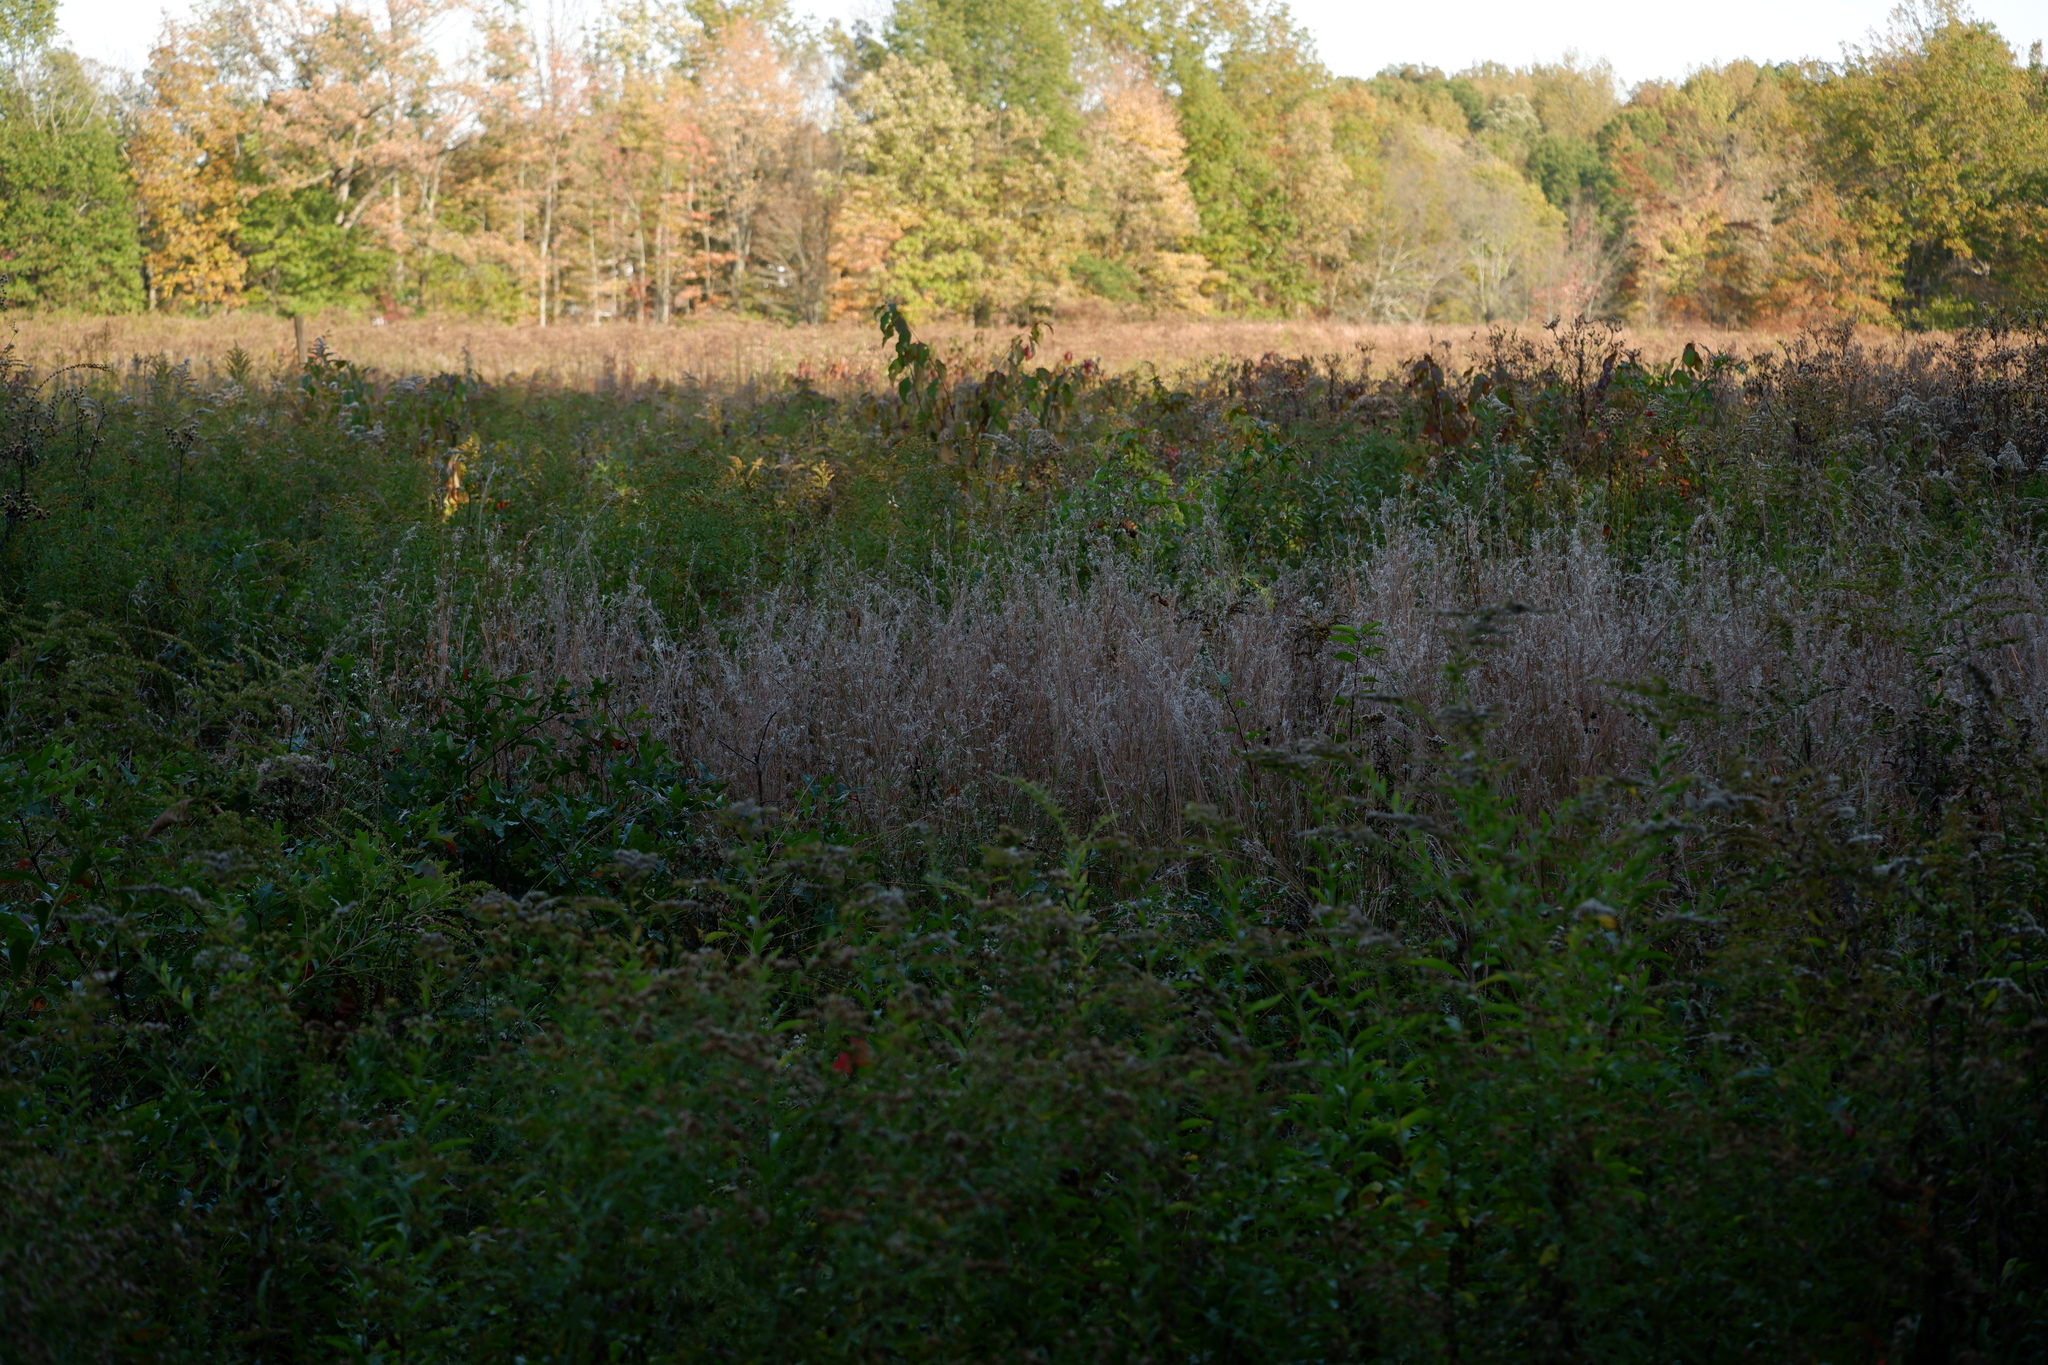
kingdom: Plantae
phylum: Tracheophyta
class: Liliopsida
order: Poales
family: Poaceae
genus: Schizachyrium
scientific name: Schizachyrium scoparium
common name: Little bluestem
